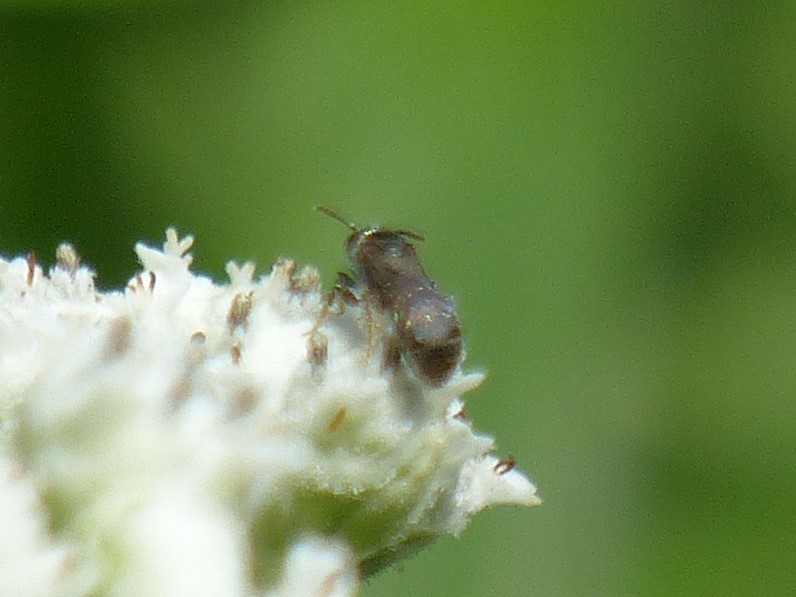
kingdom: Animalia
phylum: Arthropoda
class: Insecta
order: Hymenoptera
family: Halictidae
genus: Dialictus
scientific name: Dialictus
